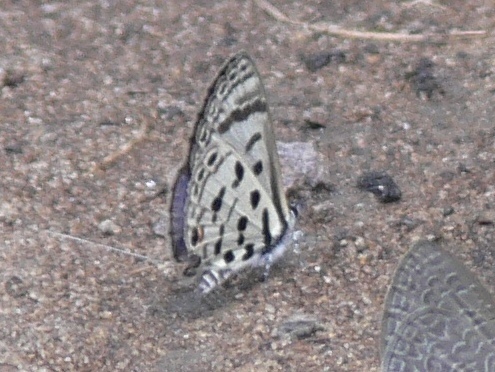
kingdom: Animalia
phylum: Arthropoda
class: Insecta
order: Lepidoptera
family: Lycaenidae
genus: Azanus
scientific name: Azanus mirza
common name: Mirza babul blue
